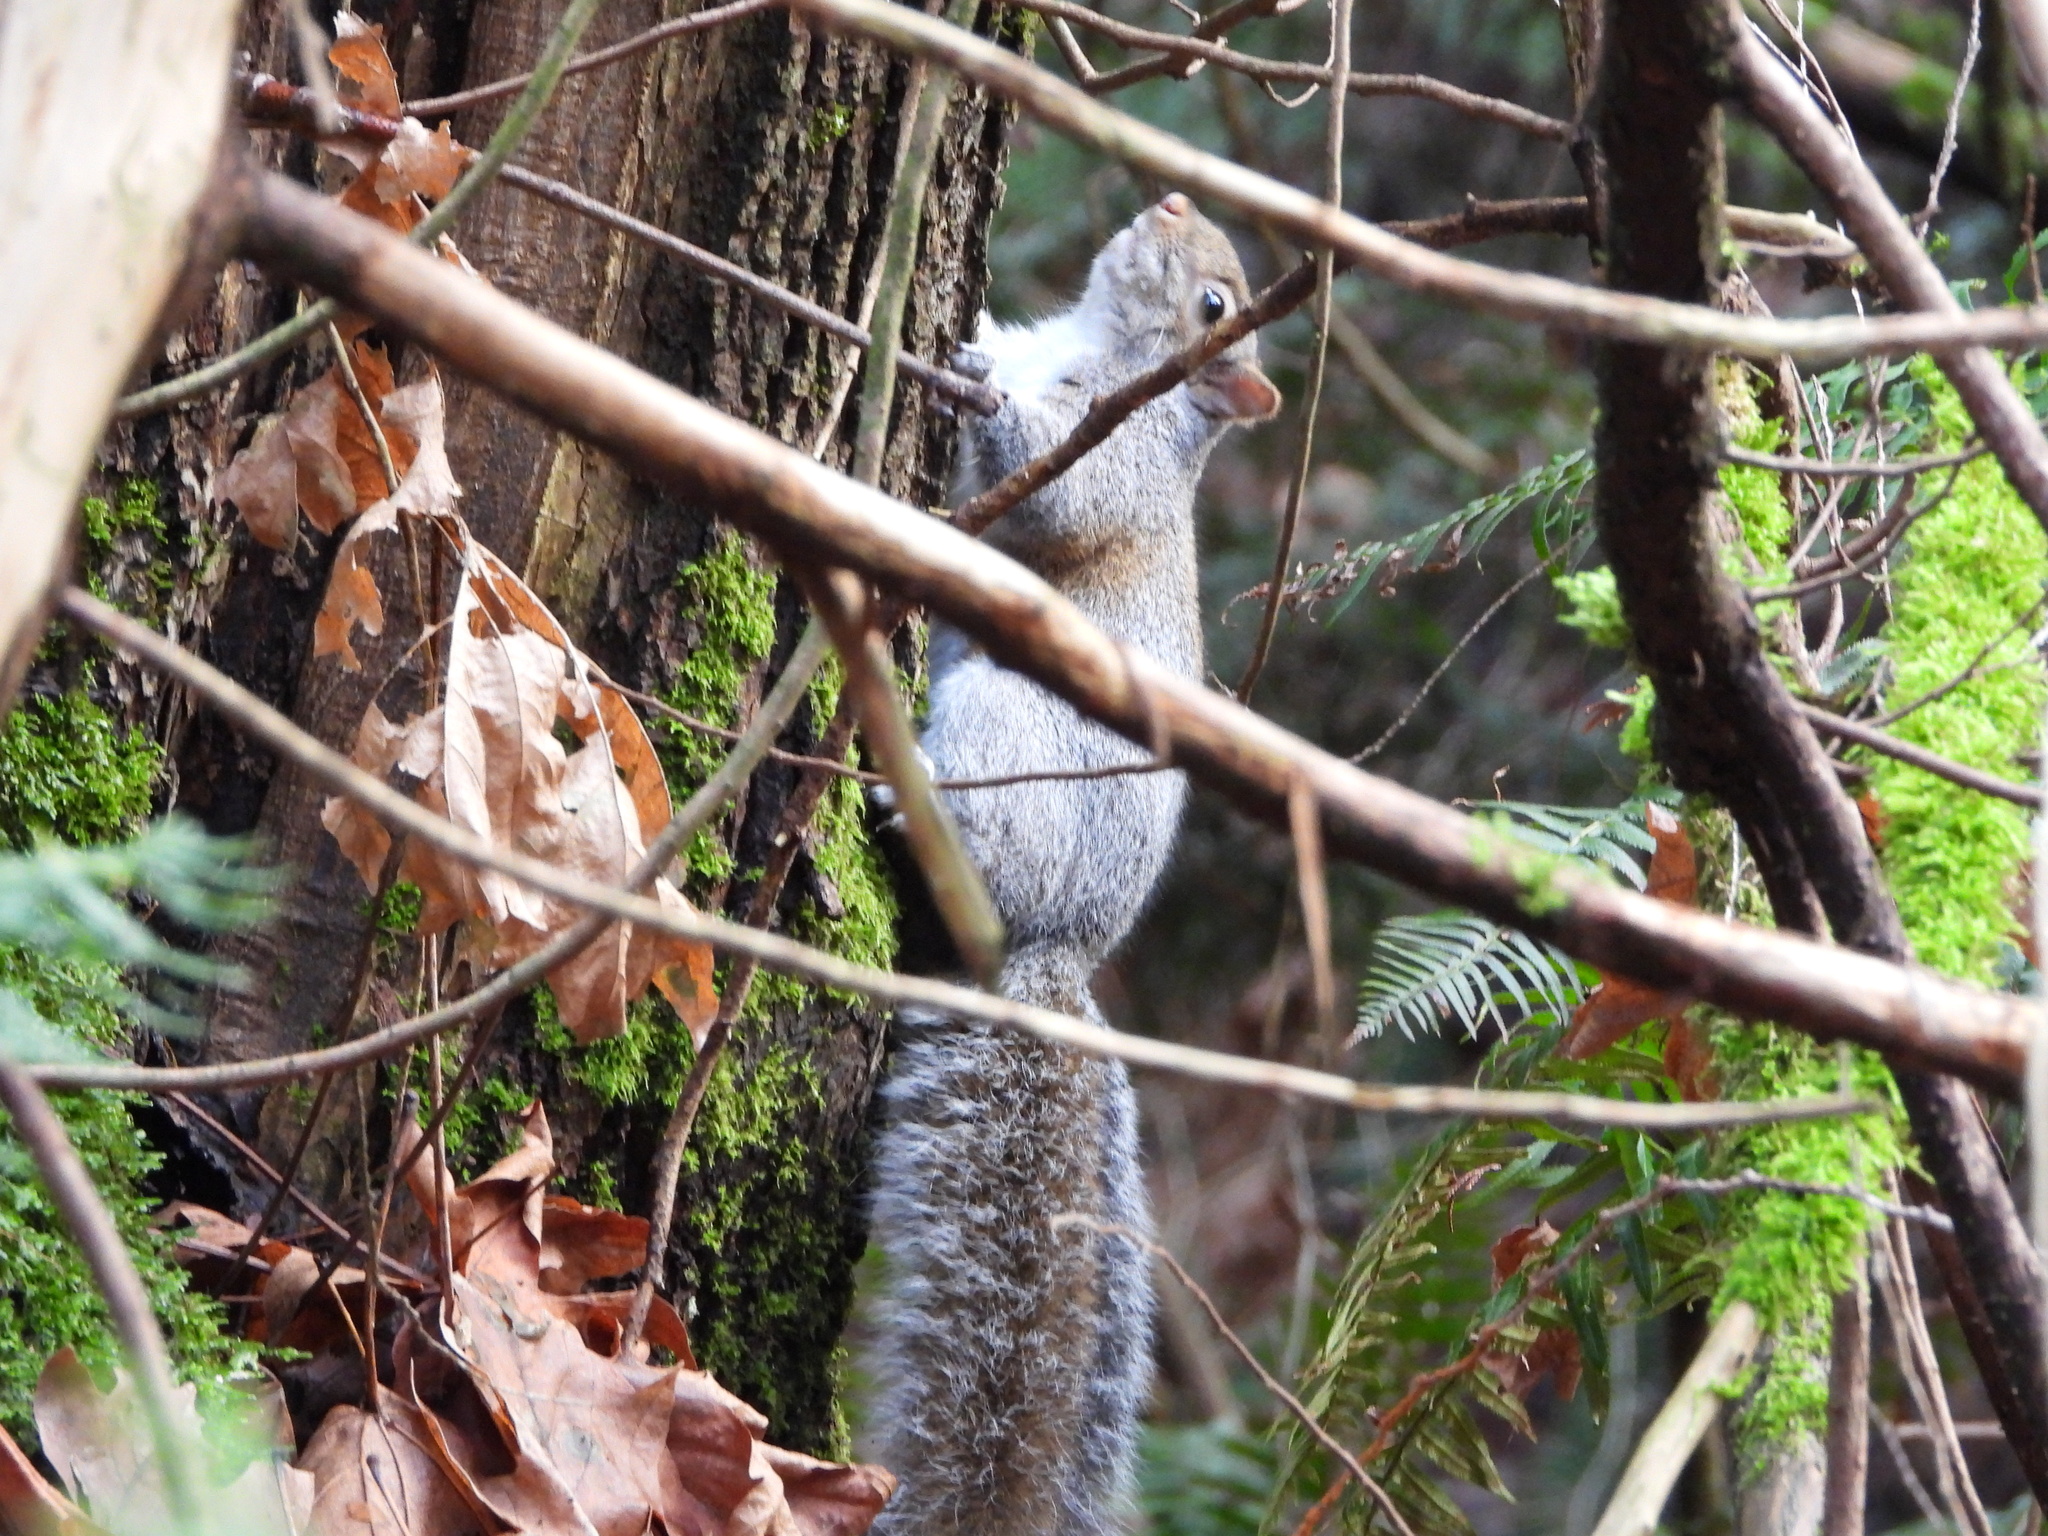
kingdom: Animalia
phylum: Chordata
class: Mammalia
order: Rodentia
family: Sciuridae
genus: Sciurus
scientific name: Sciurus carolinensis
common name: Eastern gray squirrel
